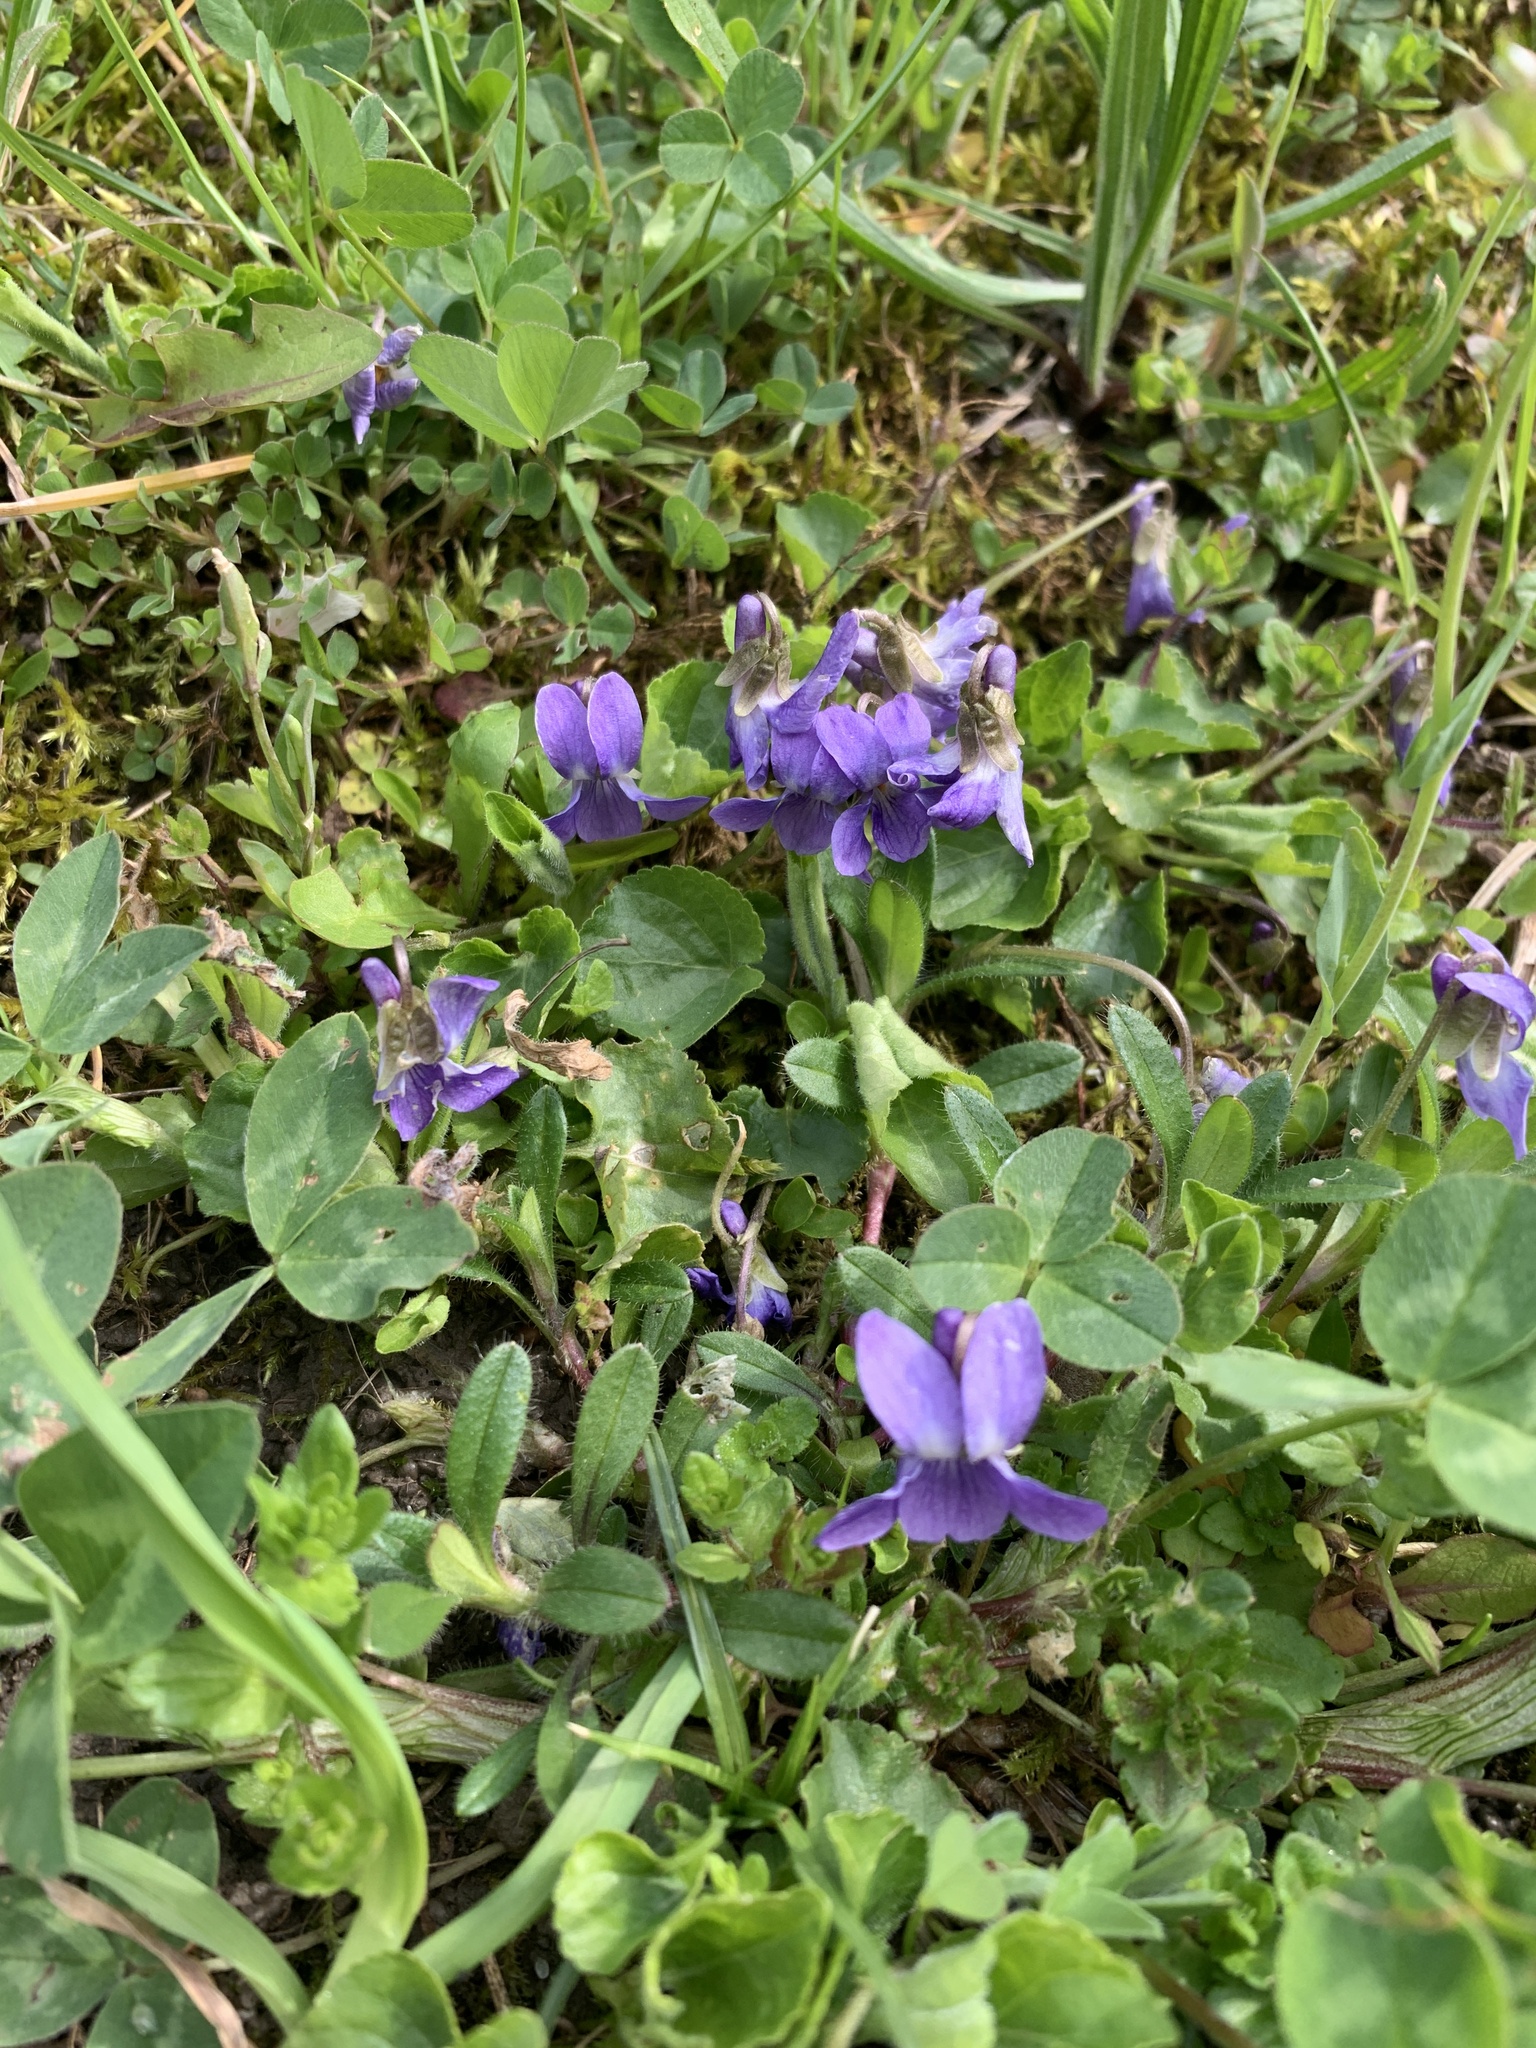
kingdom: Plantae
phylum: Tracheophyta
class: Magnoliopsida
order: Malpighiales
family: Violaceae
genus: Viola
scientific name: Viola odorata
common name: Sweet violet
